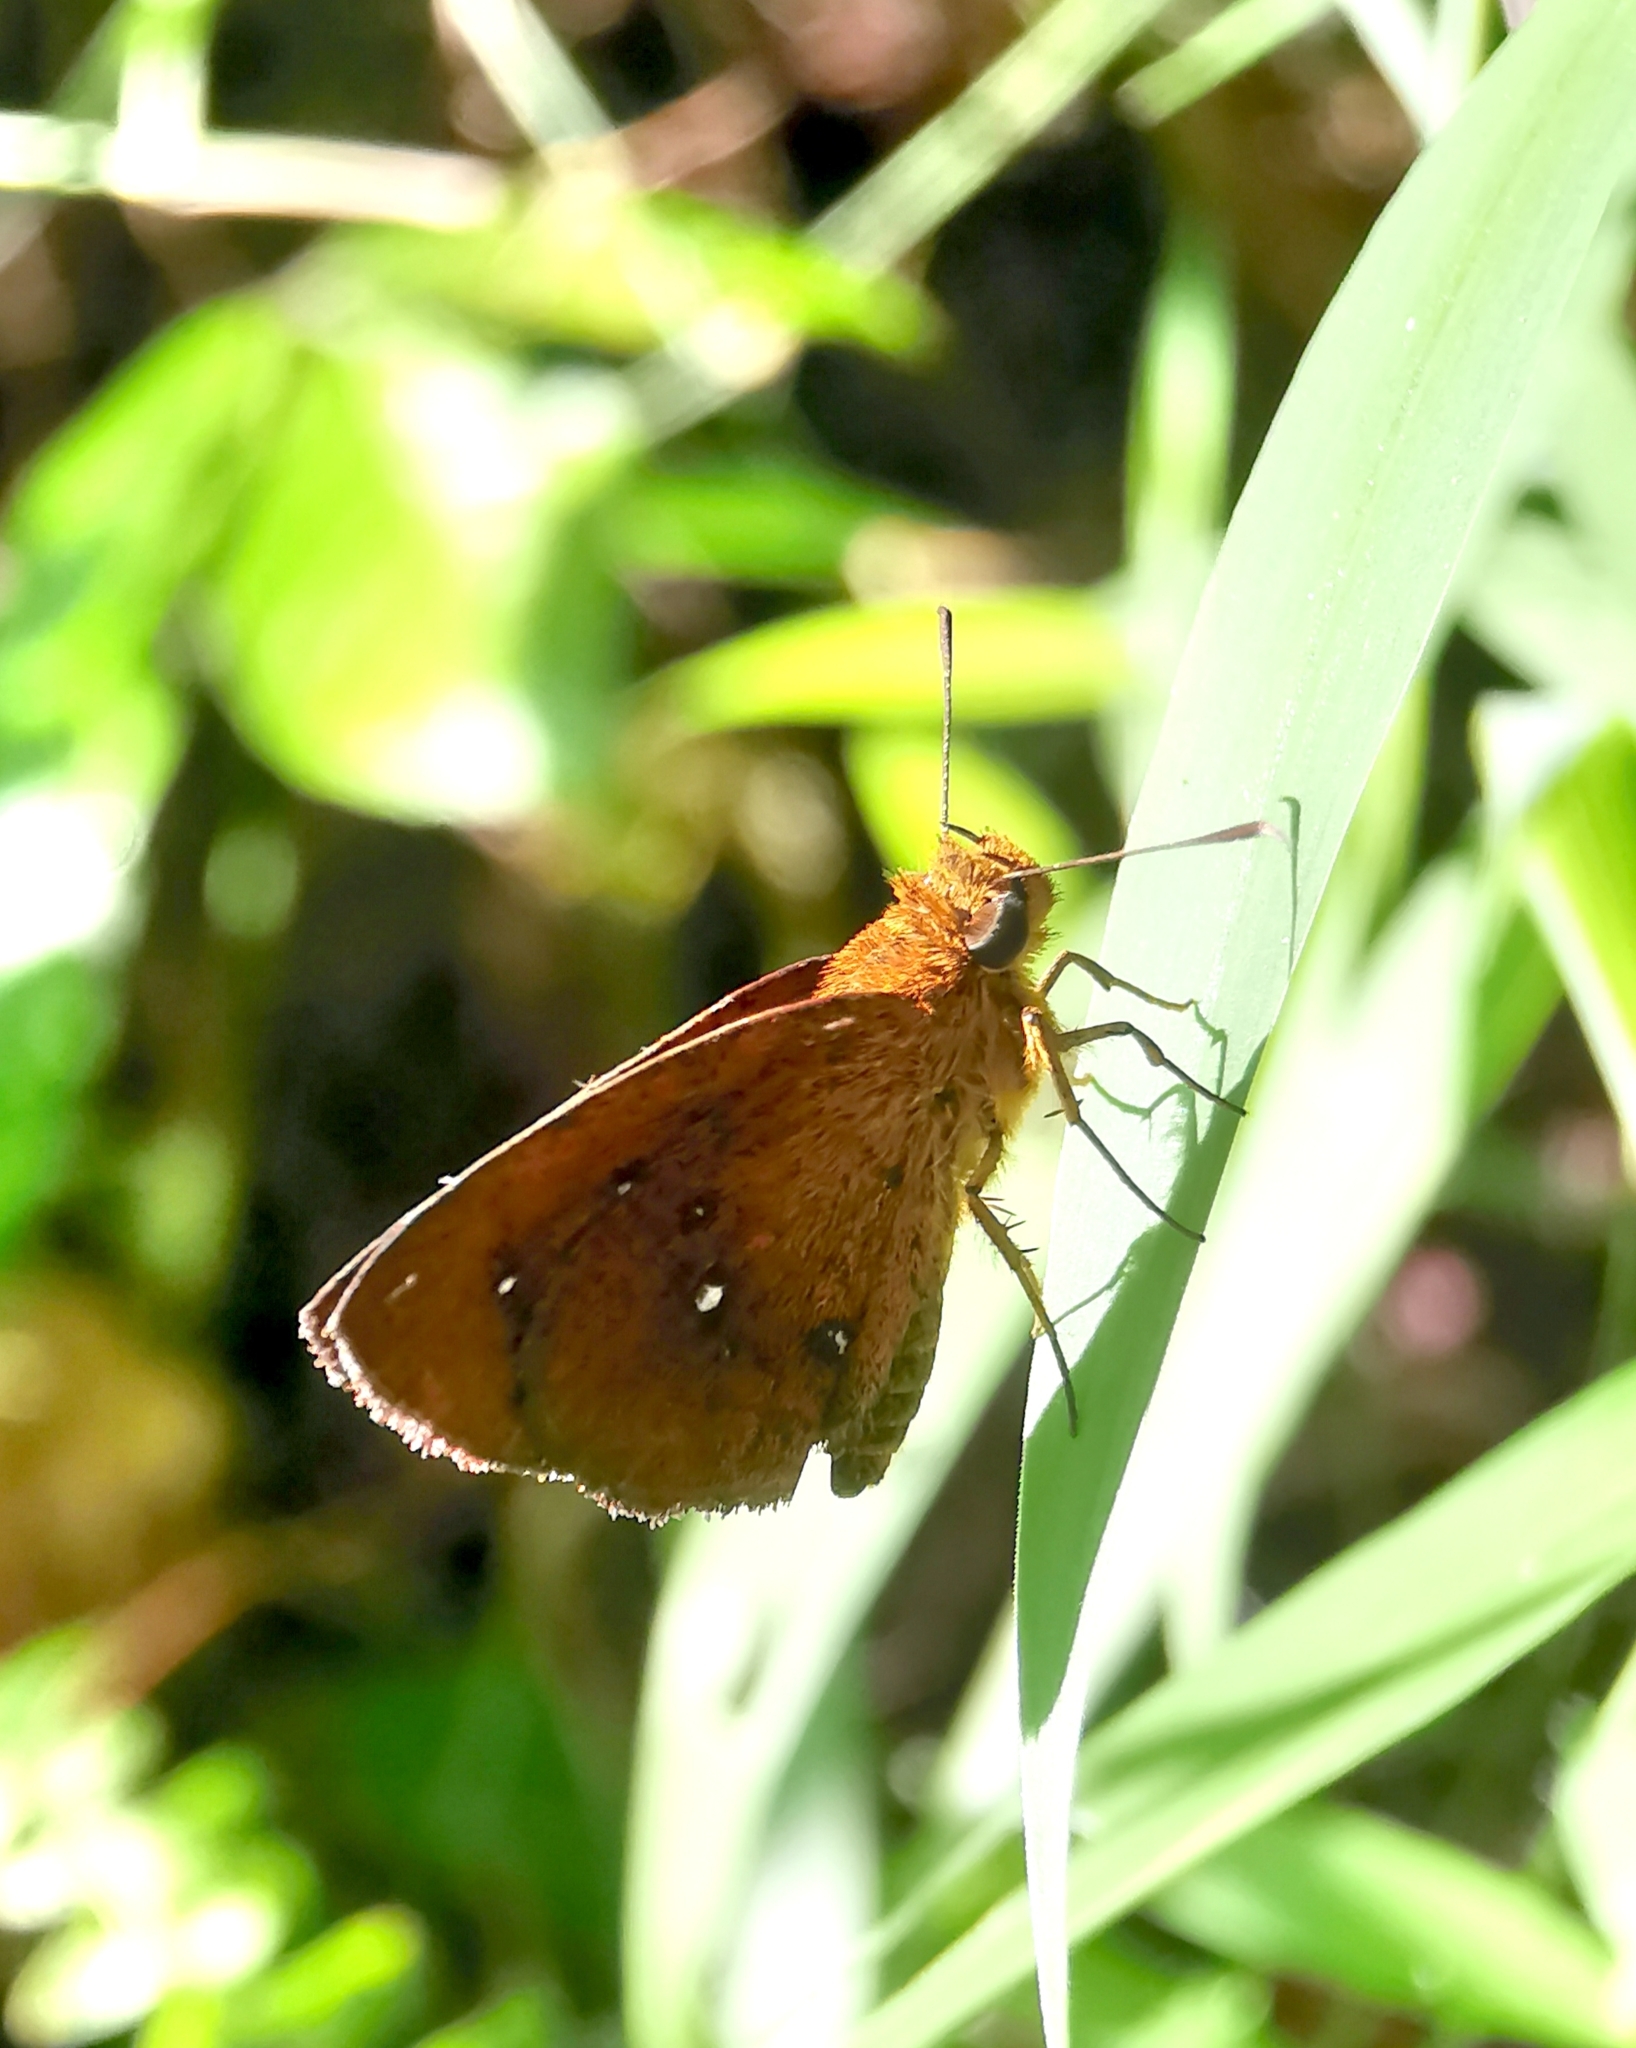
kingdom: Animalia
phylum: Arthropoda
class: Insecta
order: Lepidoptera
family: Hesperiidae
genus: Iambrix
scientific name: Iambrix salsala
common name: Chestnut bob
